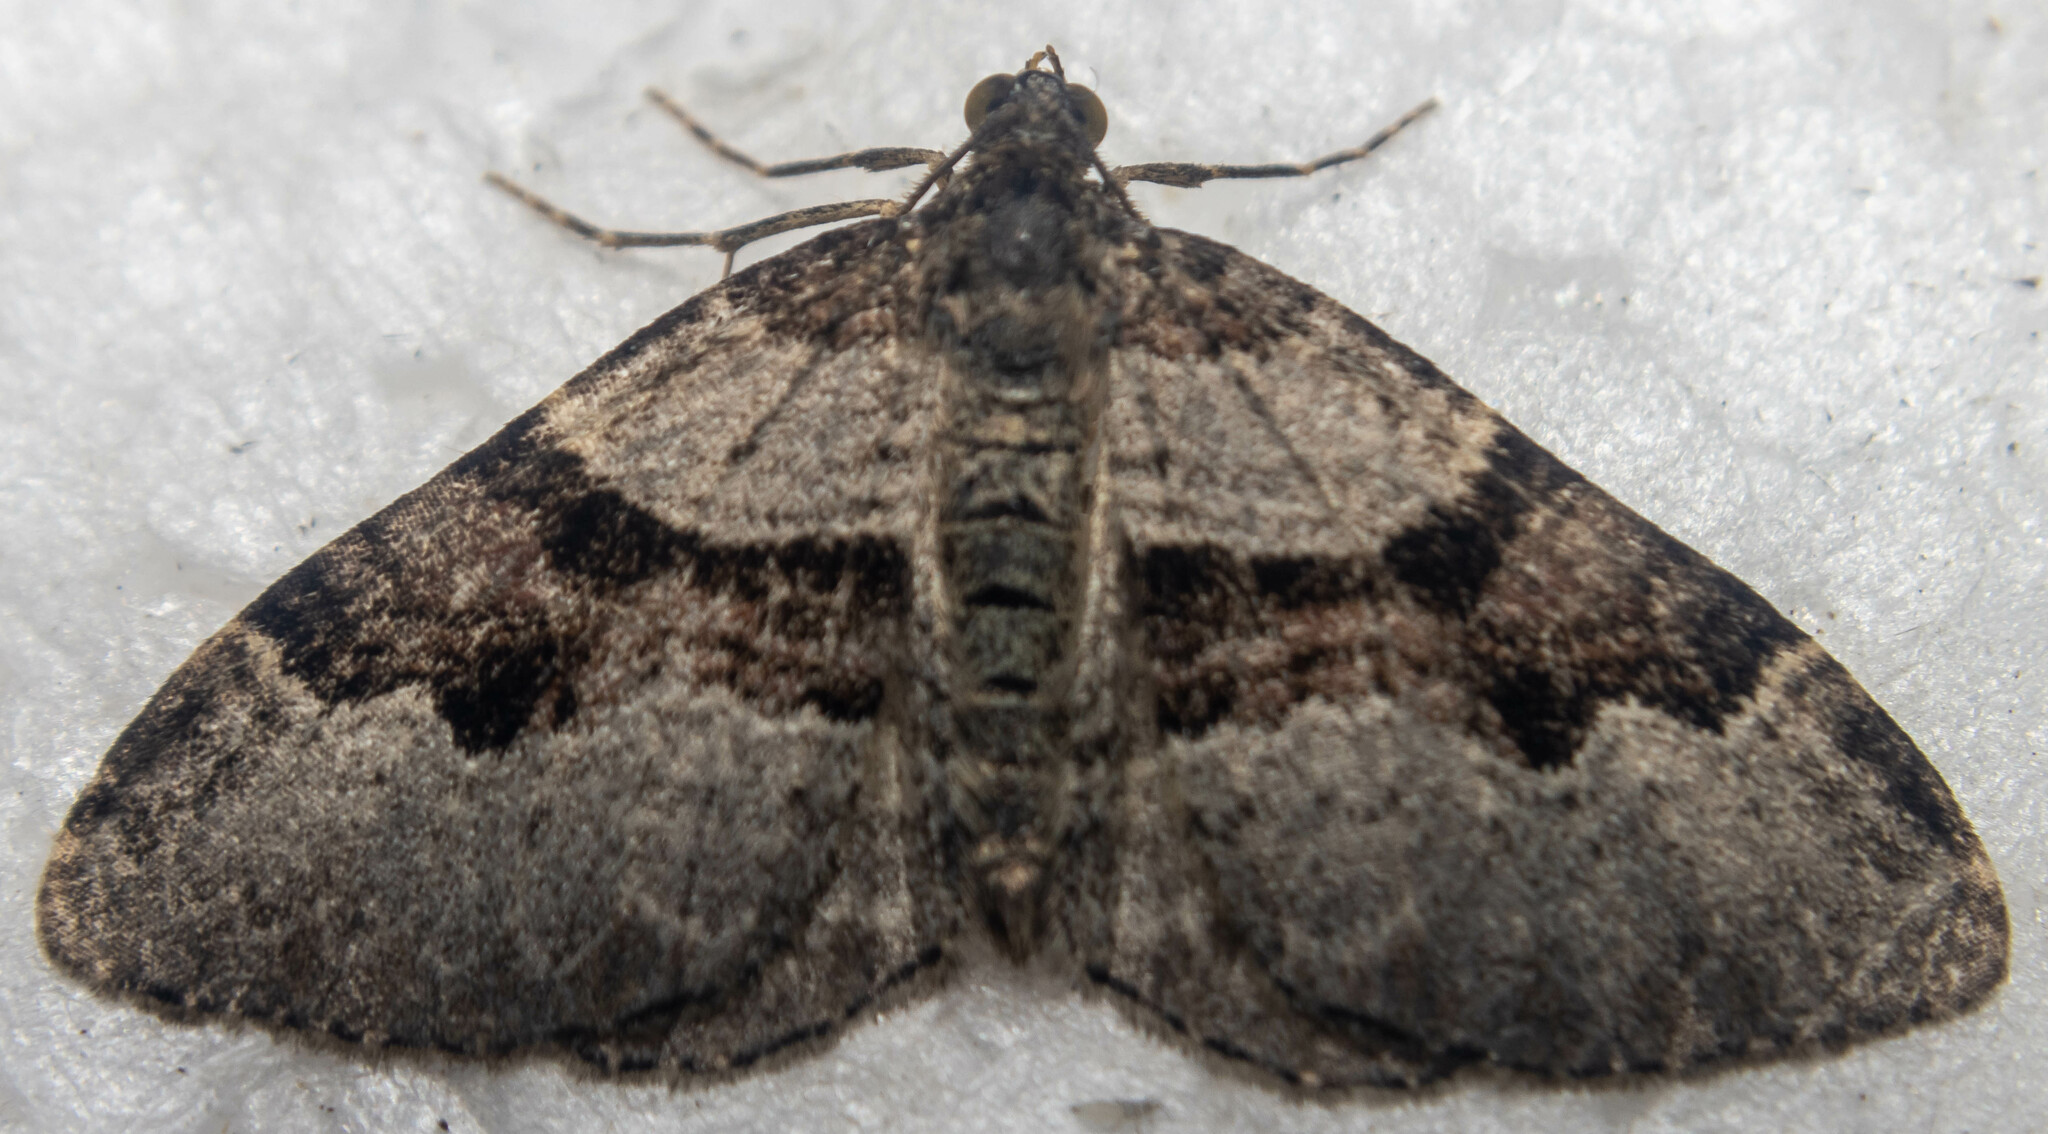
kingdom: Animalia
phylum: Arthropoda
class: Insecta
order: Lepidoptera
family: Geometridae
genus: Xanthorhoe
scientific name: Xanthorhoe designata
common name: Flame carpet
